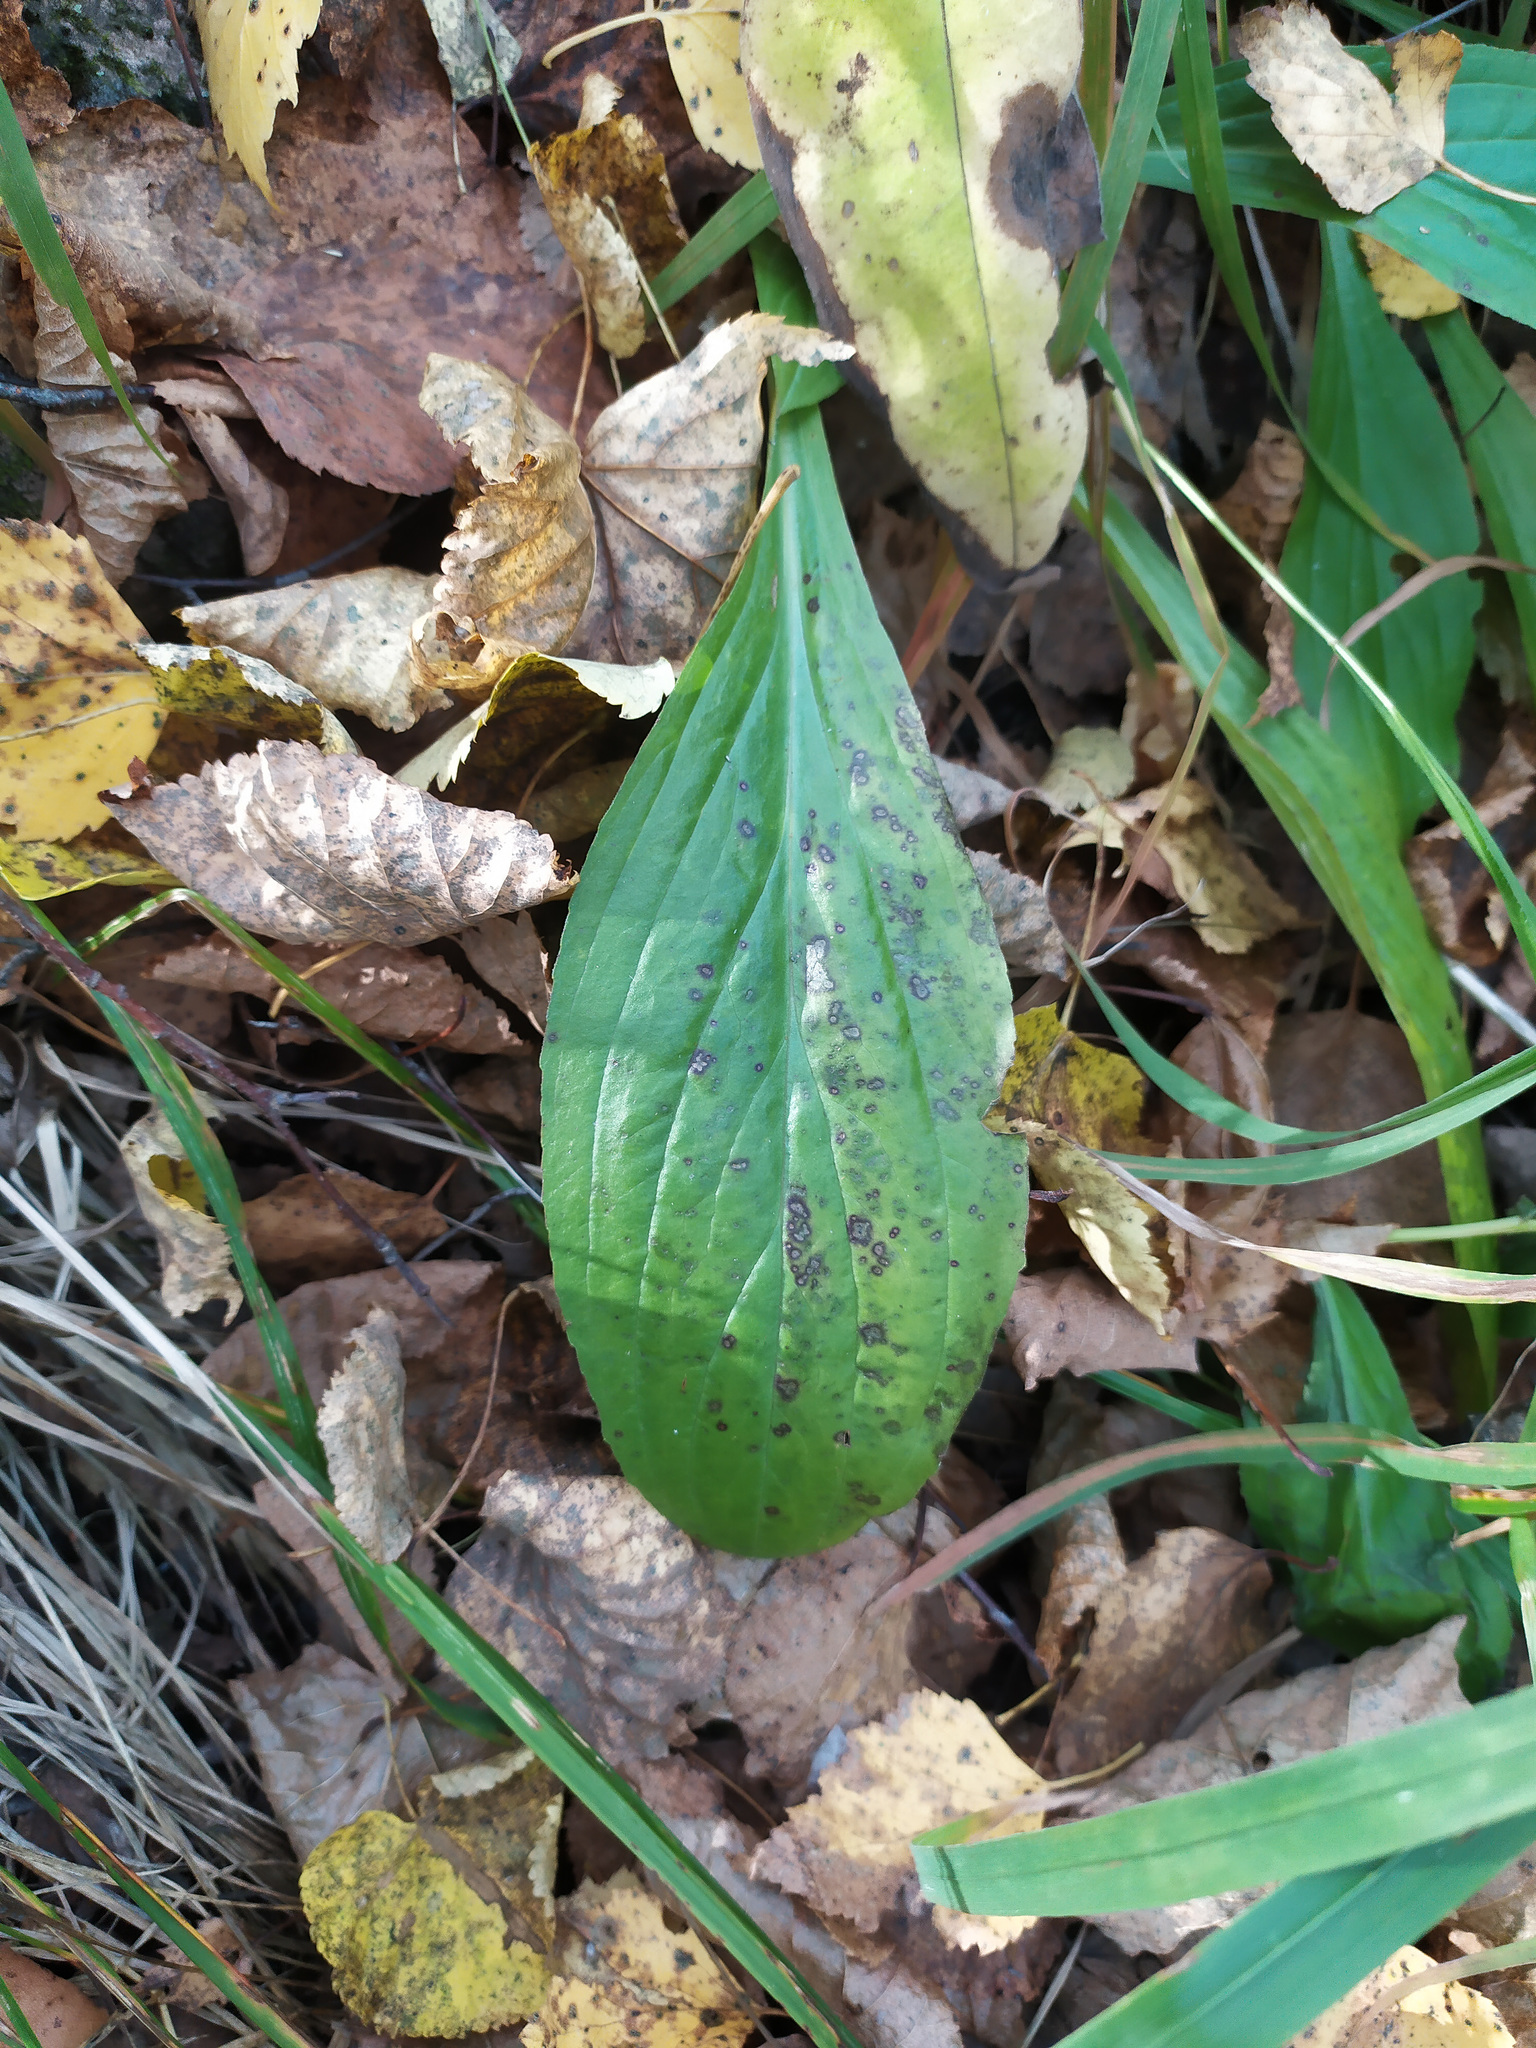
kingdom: Plantae
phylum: Tracheophyta
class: Magnoliopsida
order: Lamiales
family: Plantaginaceae
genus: Digitalis
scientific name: Digitalis grandiflora
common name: Yellow foxglove
